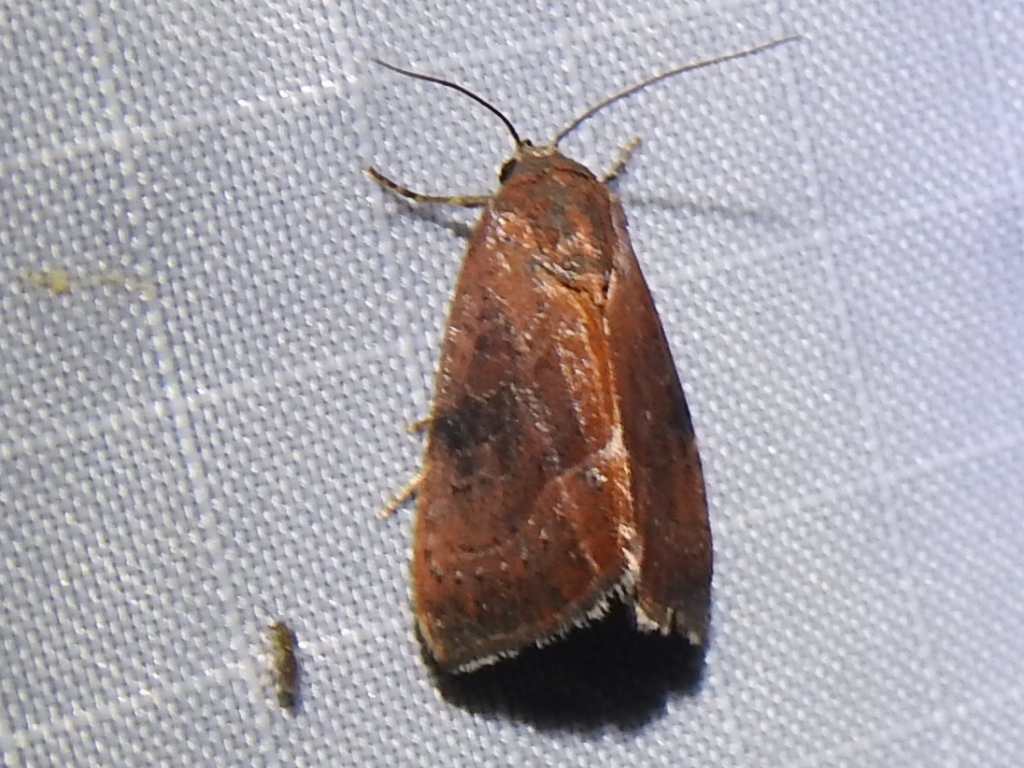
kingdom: Animalia
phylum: Arthropoda
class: Insecta
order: Lepidoptera
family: Noctuidae
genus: Galgula
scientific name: Galgula partita
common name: Wedgeling
